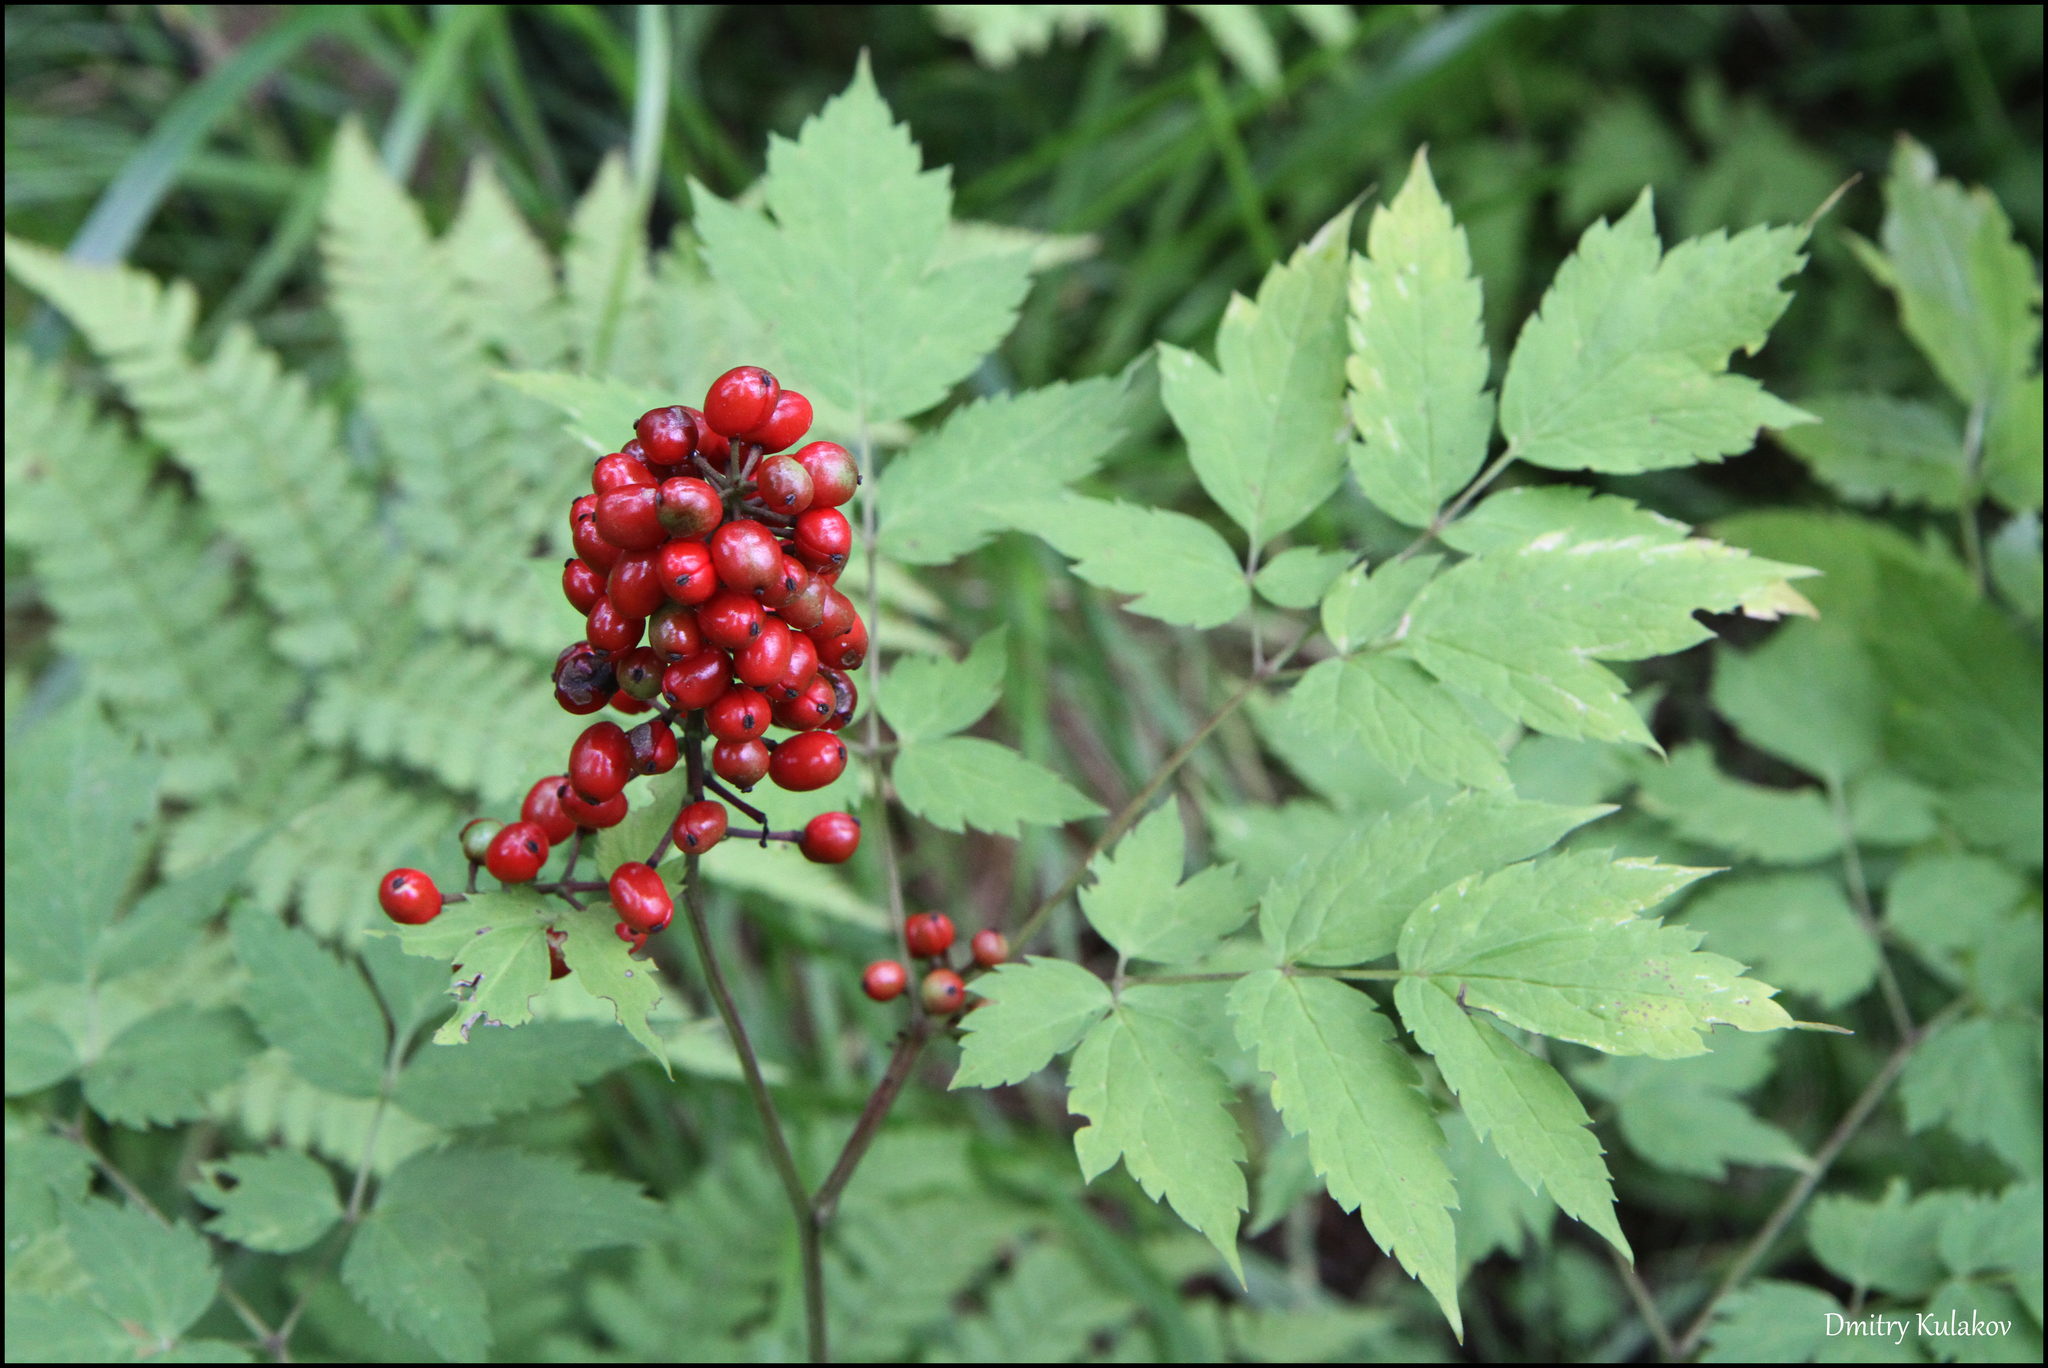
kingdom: Plantae
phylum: Tracheophyta
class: Magnoliopsida
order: Ranunculales
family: Ranunculaceae
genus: Actaea
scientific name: Actaea erythrocarpa
